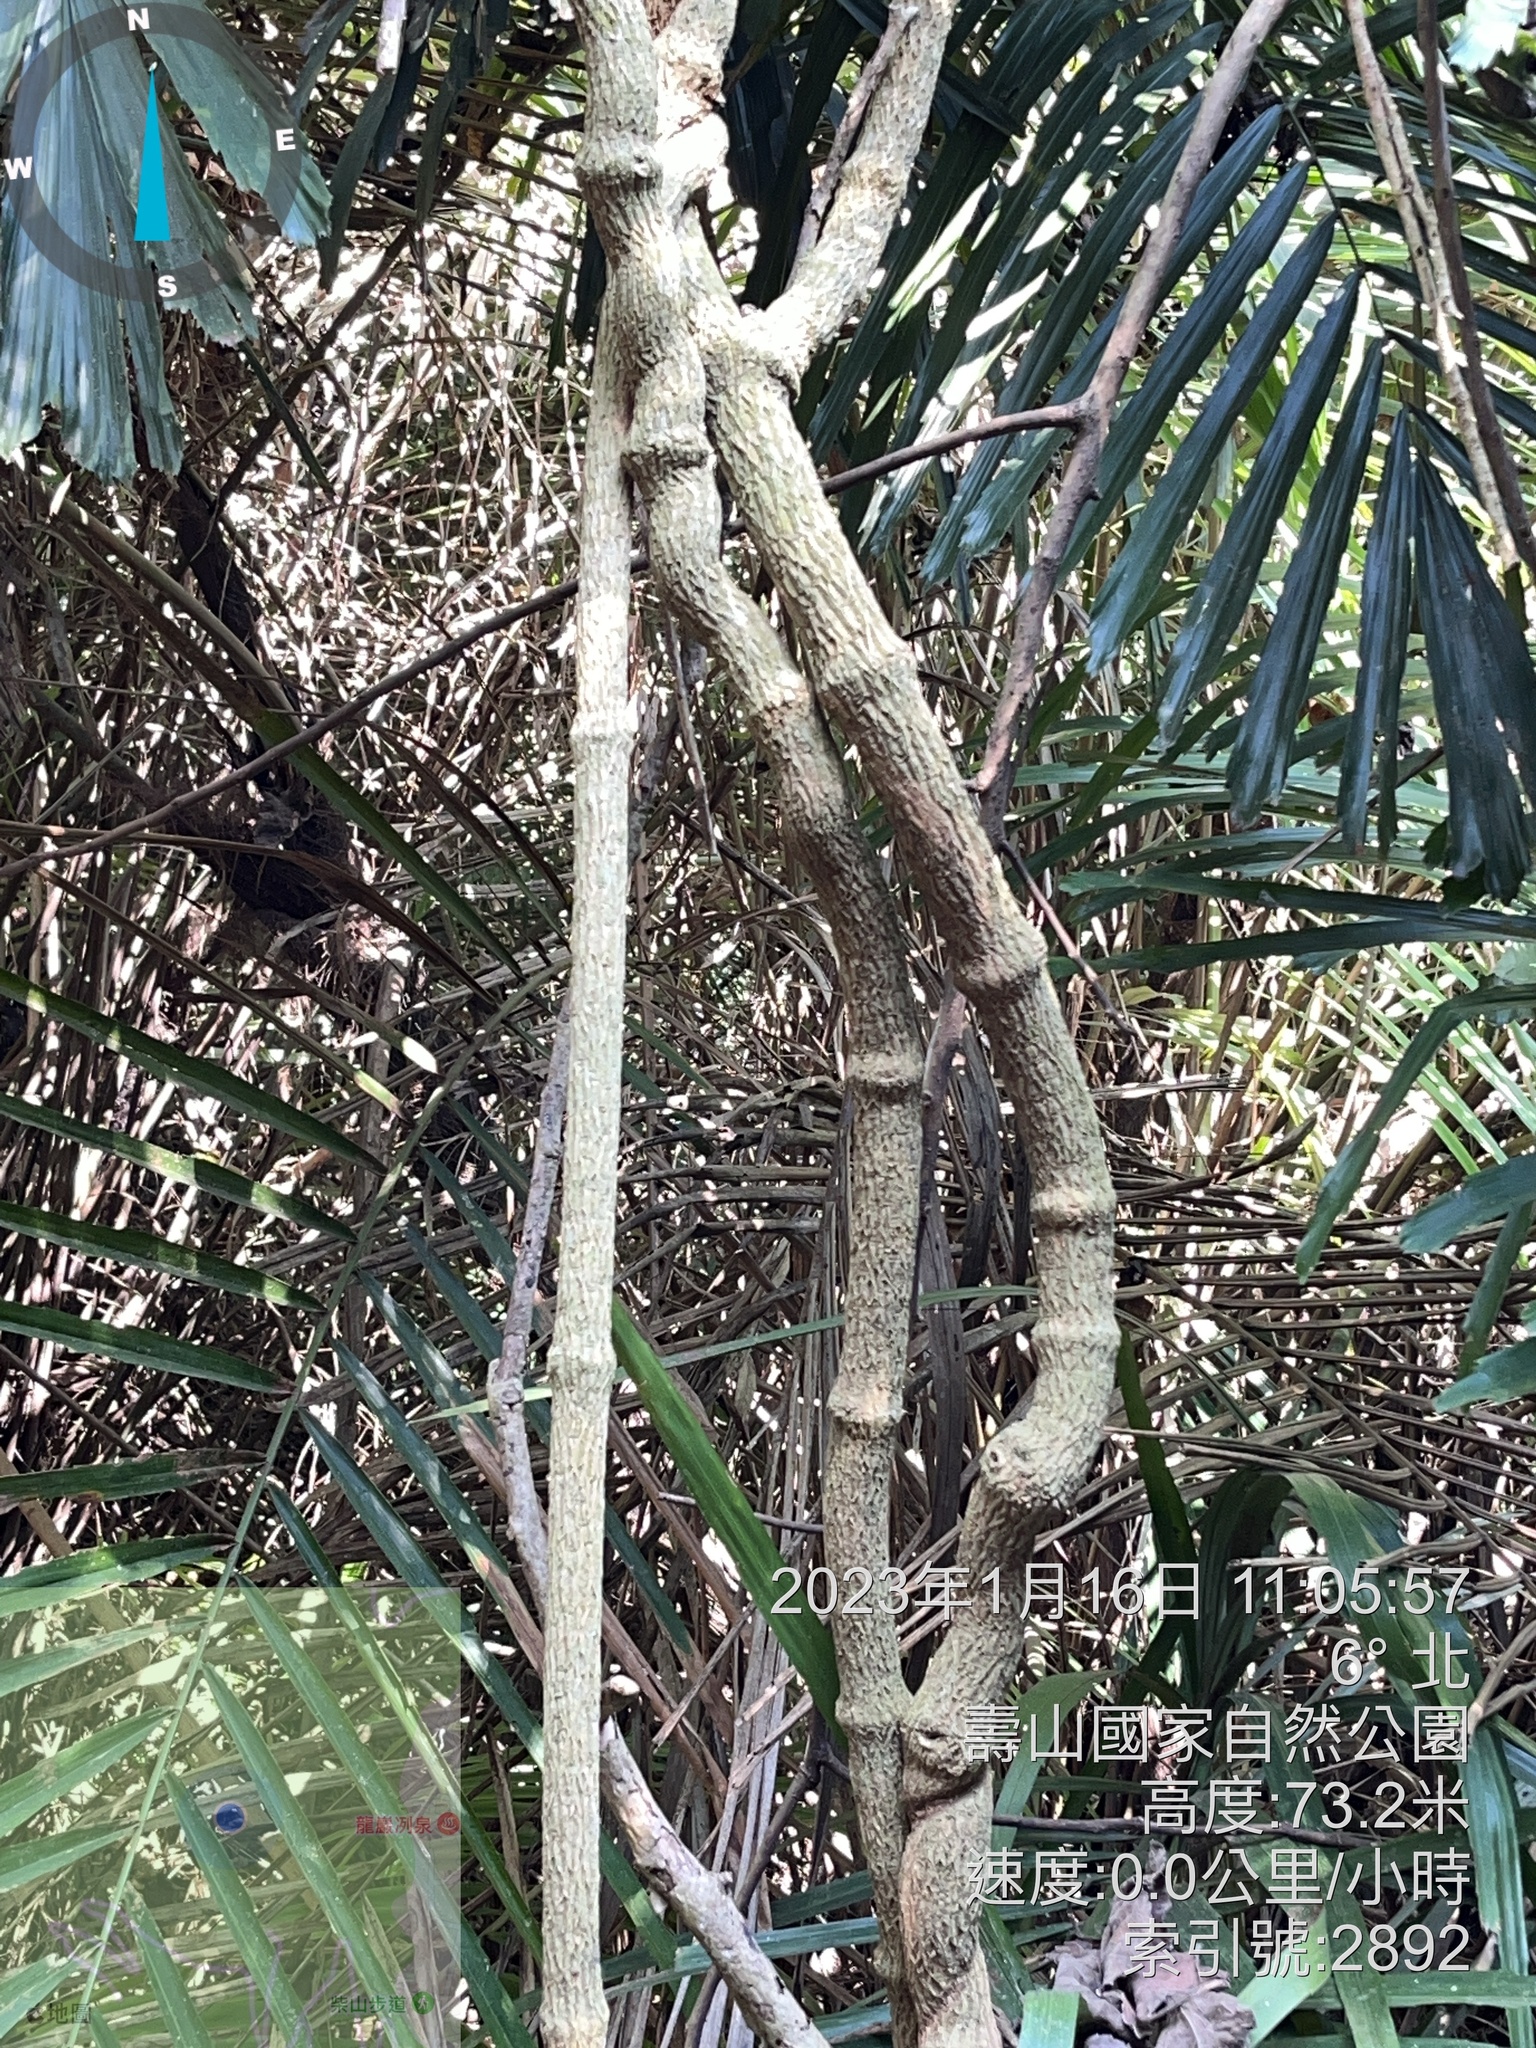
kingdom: Plantae
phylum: Tracheophyta
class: Magnoliopsida
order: Gentianales
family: Apocynaceae
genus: Stephanotis
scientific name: Stephanotis volubilis
